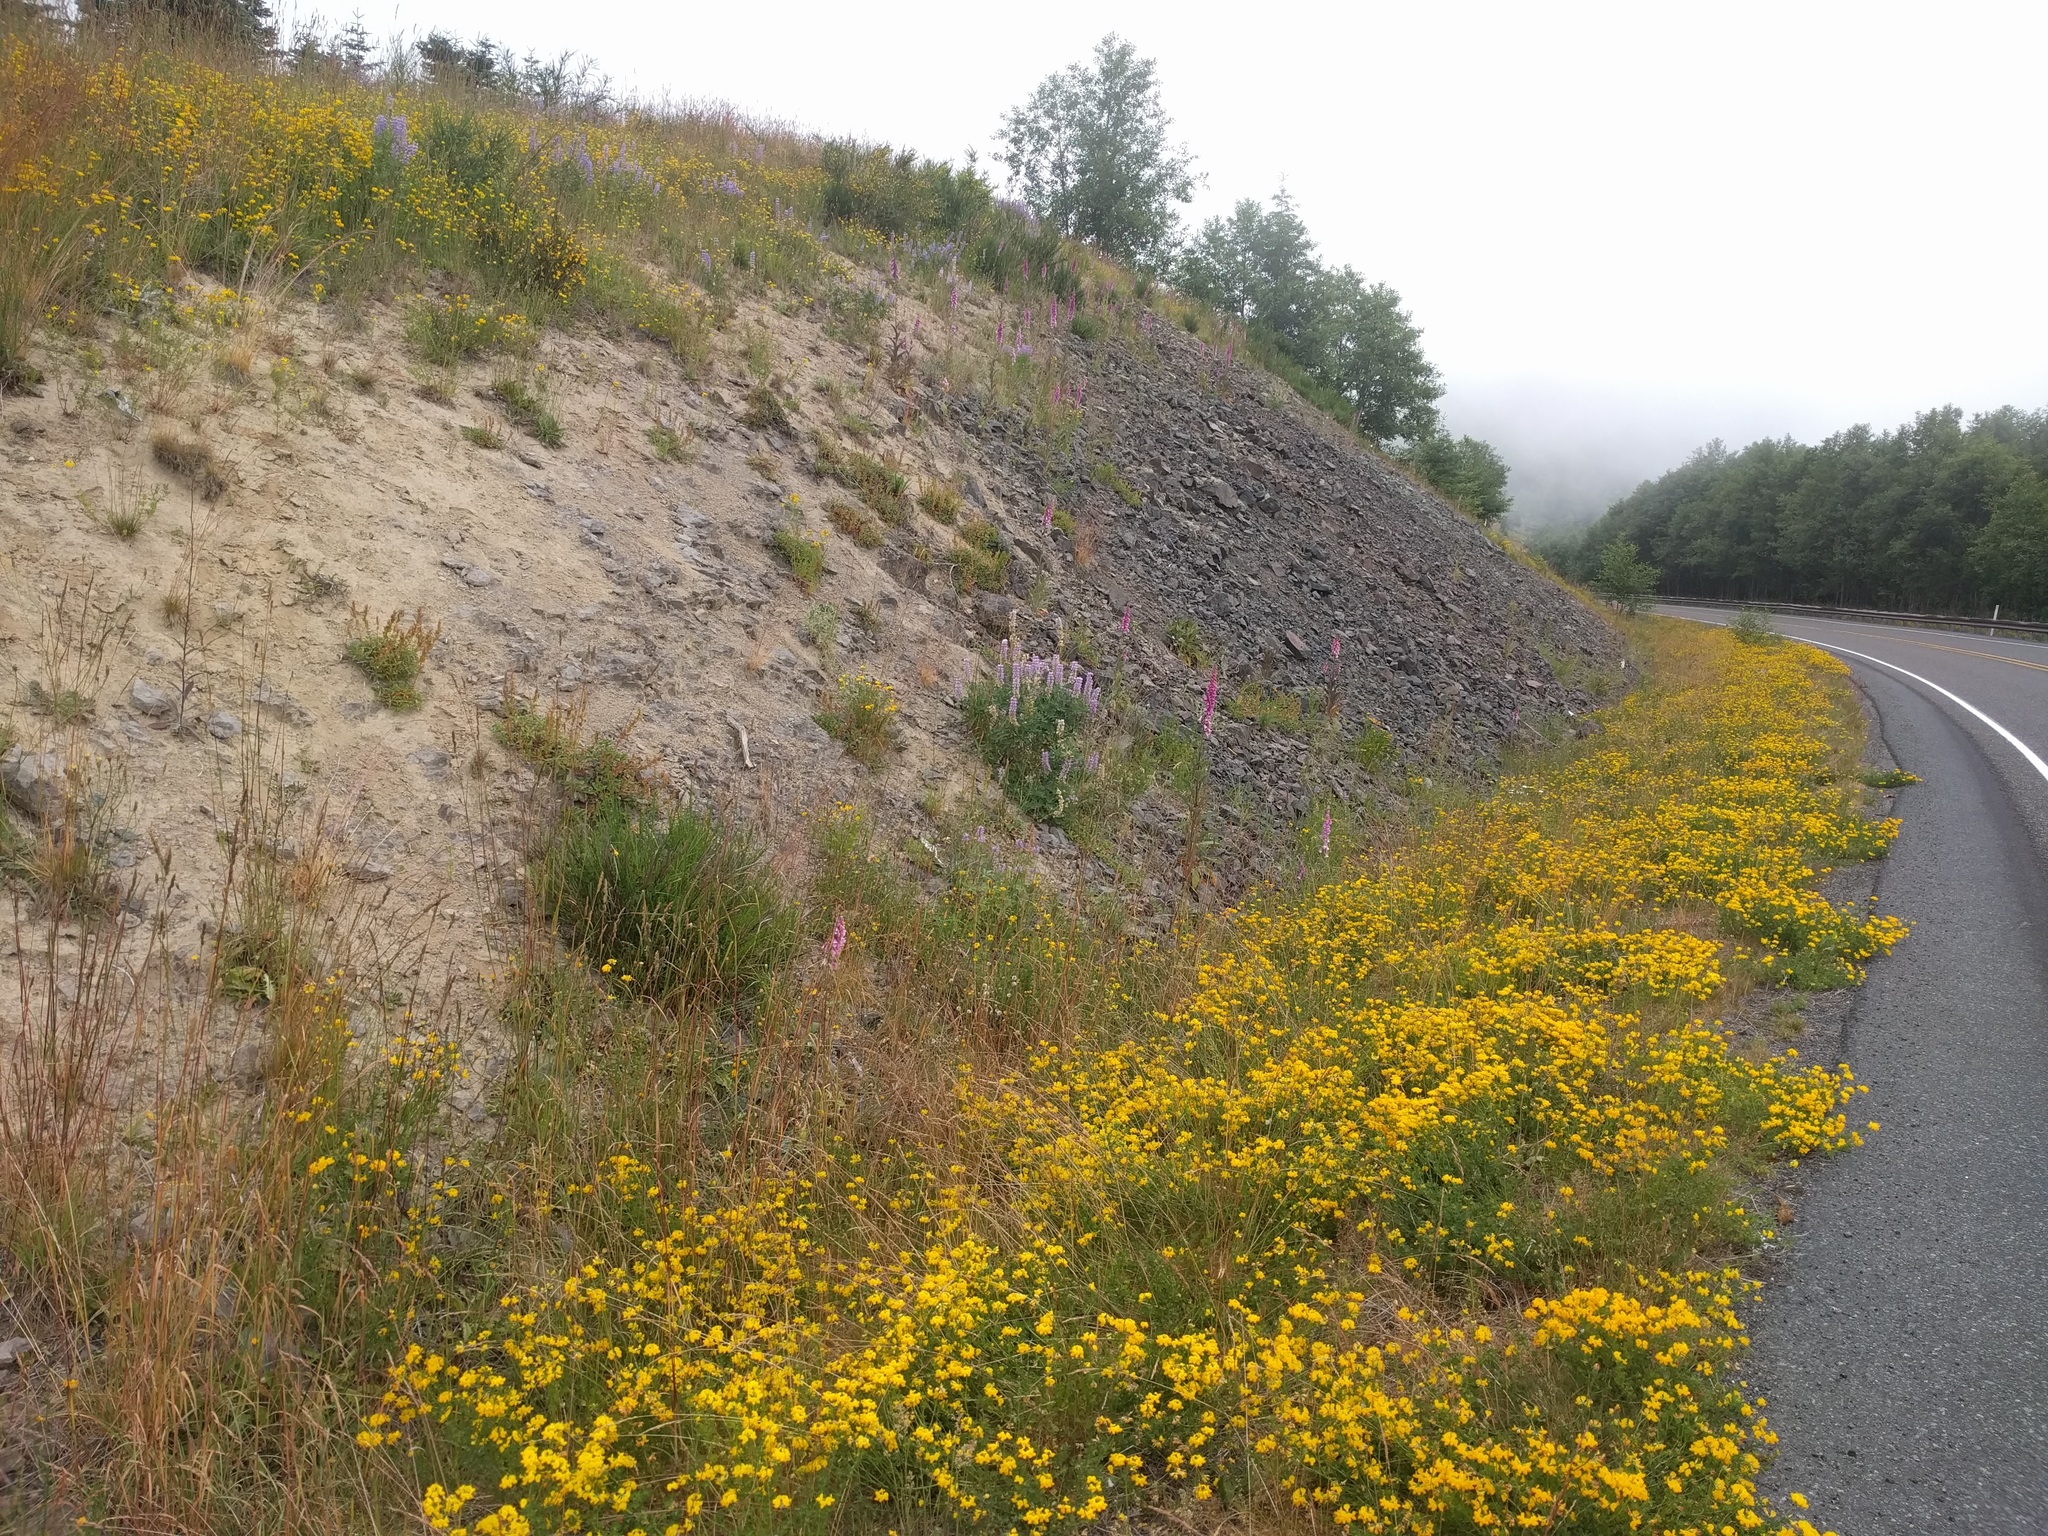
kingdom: Plantae
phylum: Tracheophyta
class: Magnoliopsida
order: Fabales
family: Fabaceae
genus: Lotus
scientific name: Lotus corniculatus
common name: Common bird's-foot-trefoil
